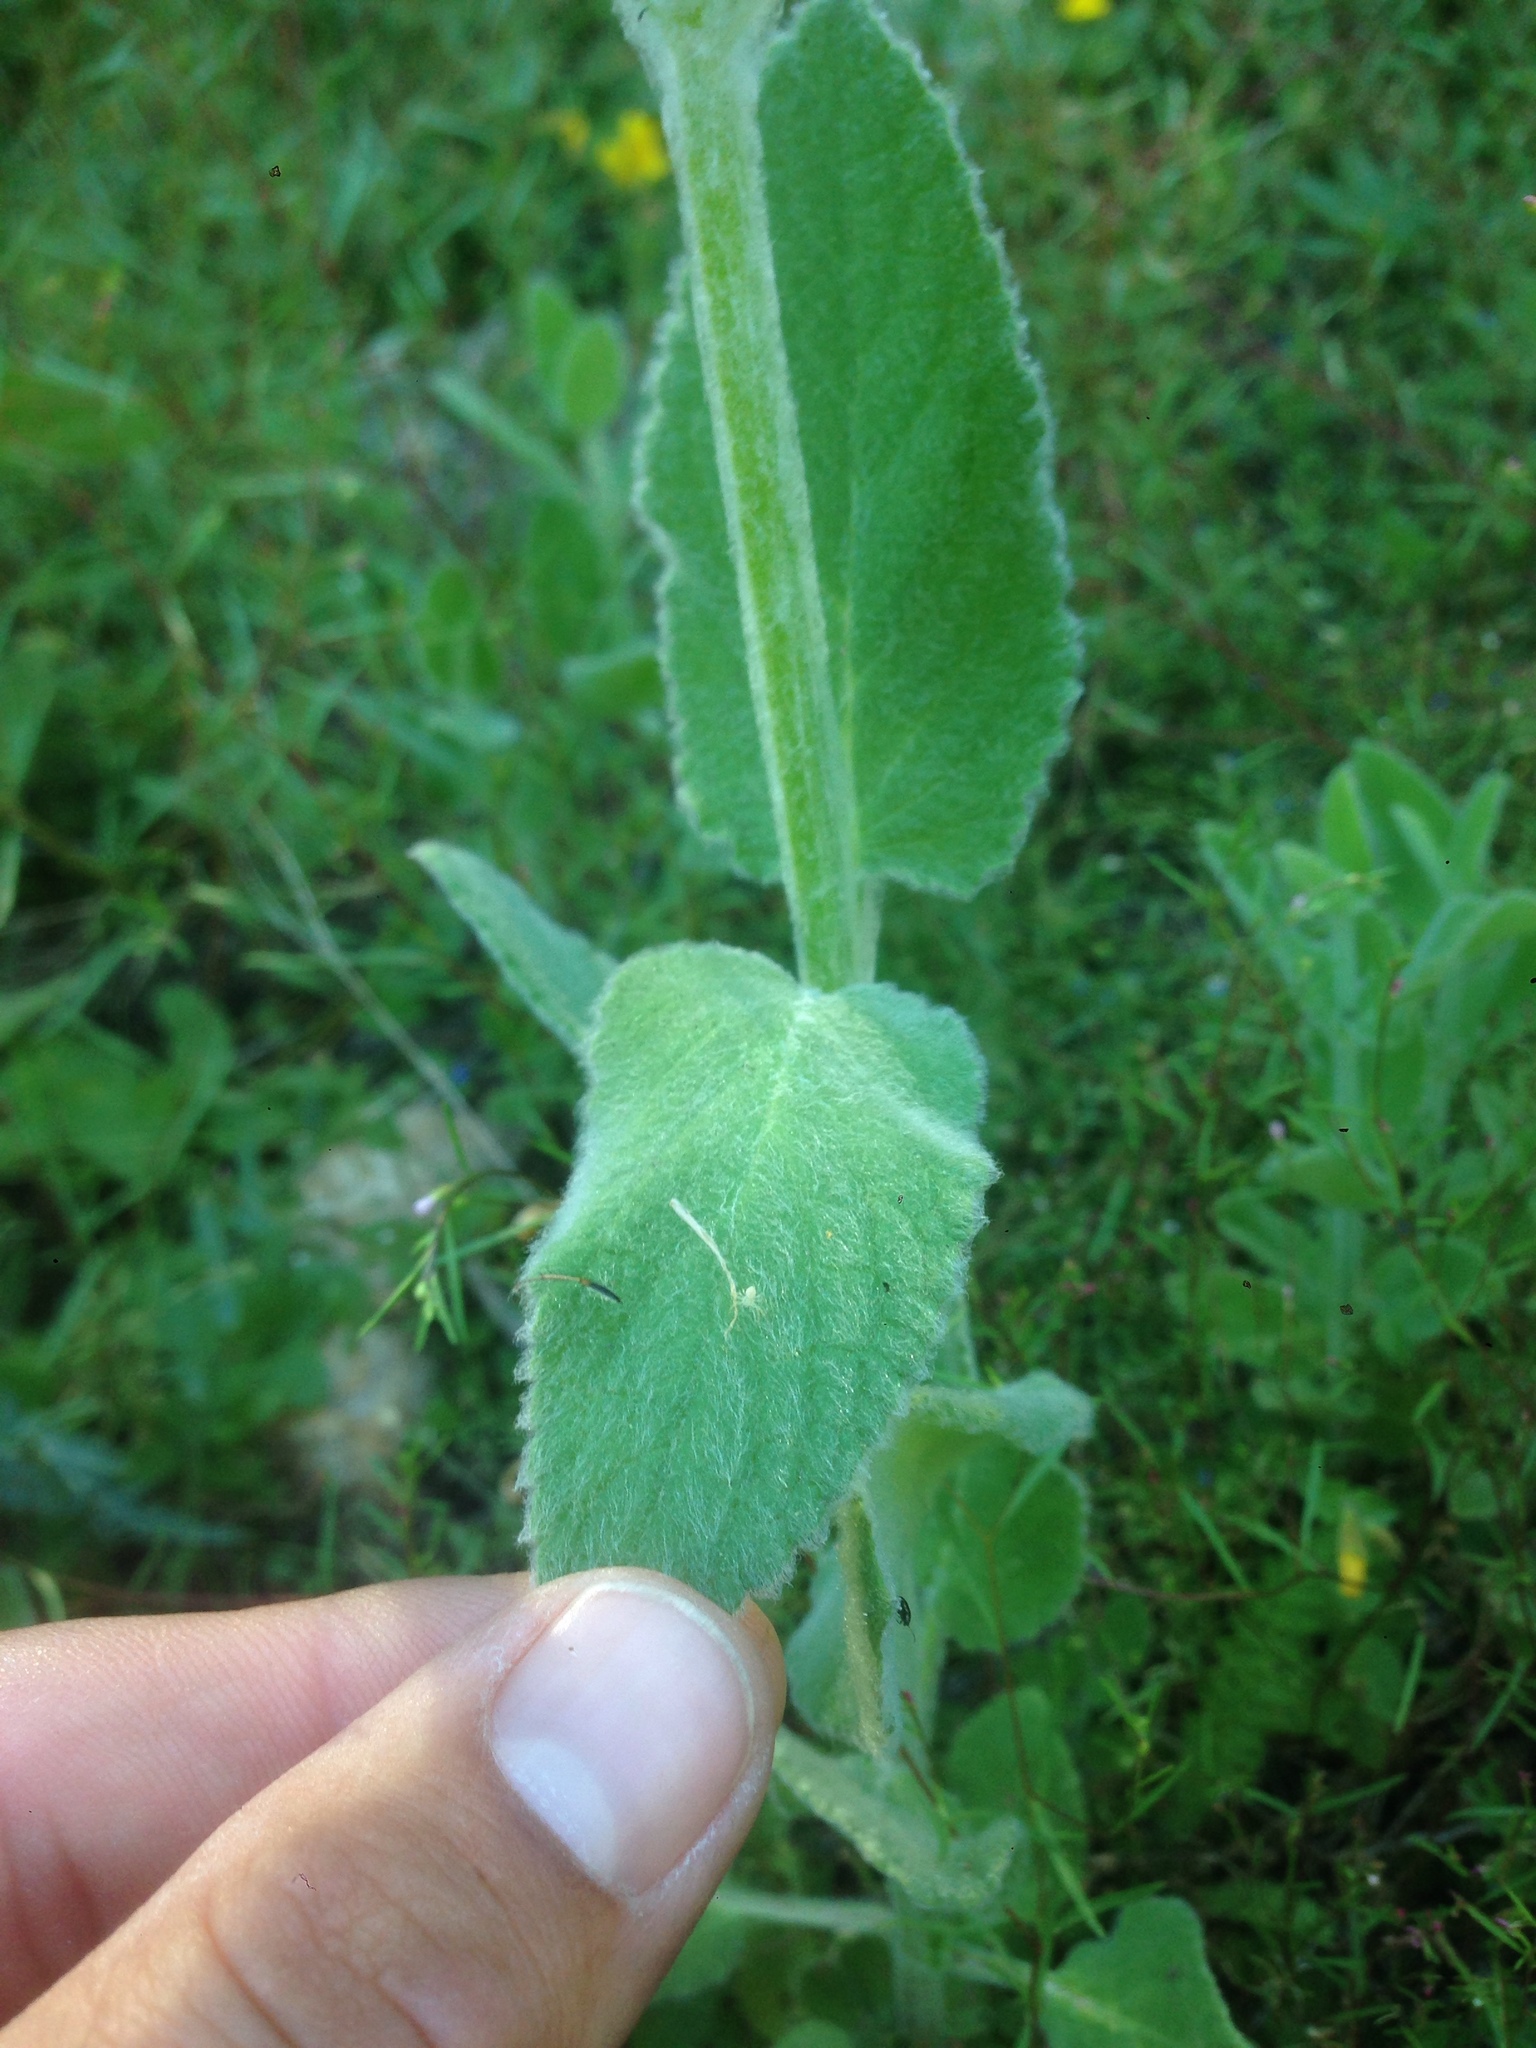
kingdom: Plantae
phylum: Tracheophyta
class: Magnoliopsida
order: Lamiales
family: Lamiaceae
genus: Stachys
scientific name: Stachys albens
